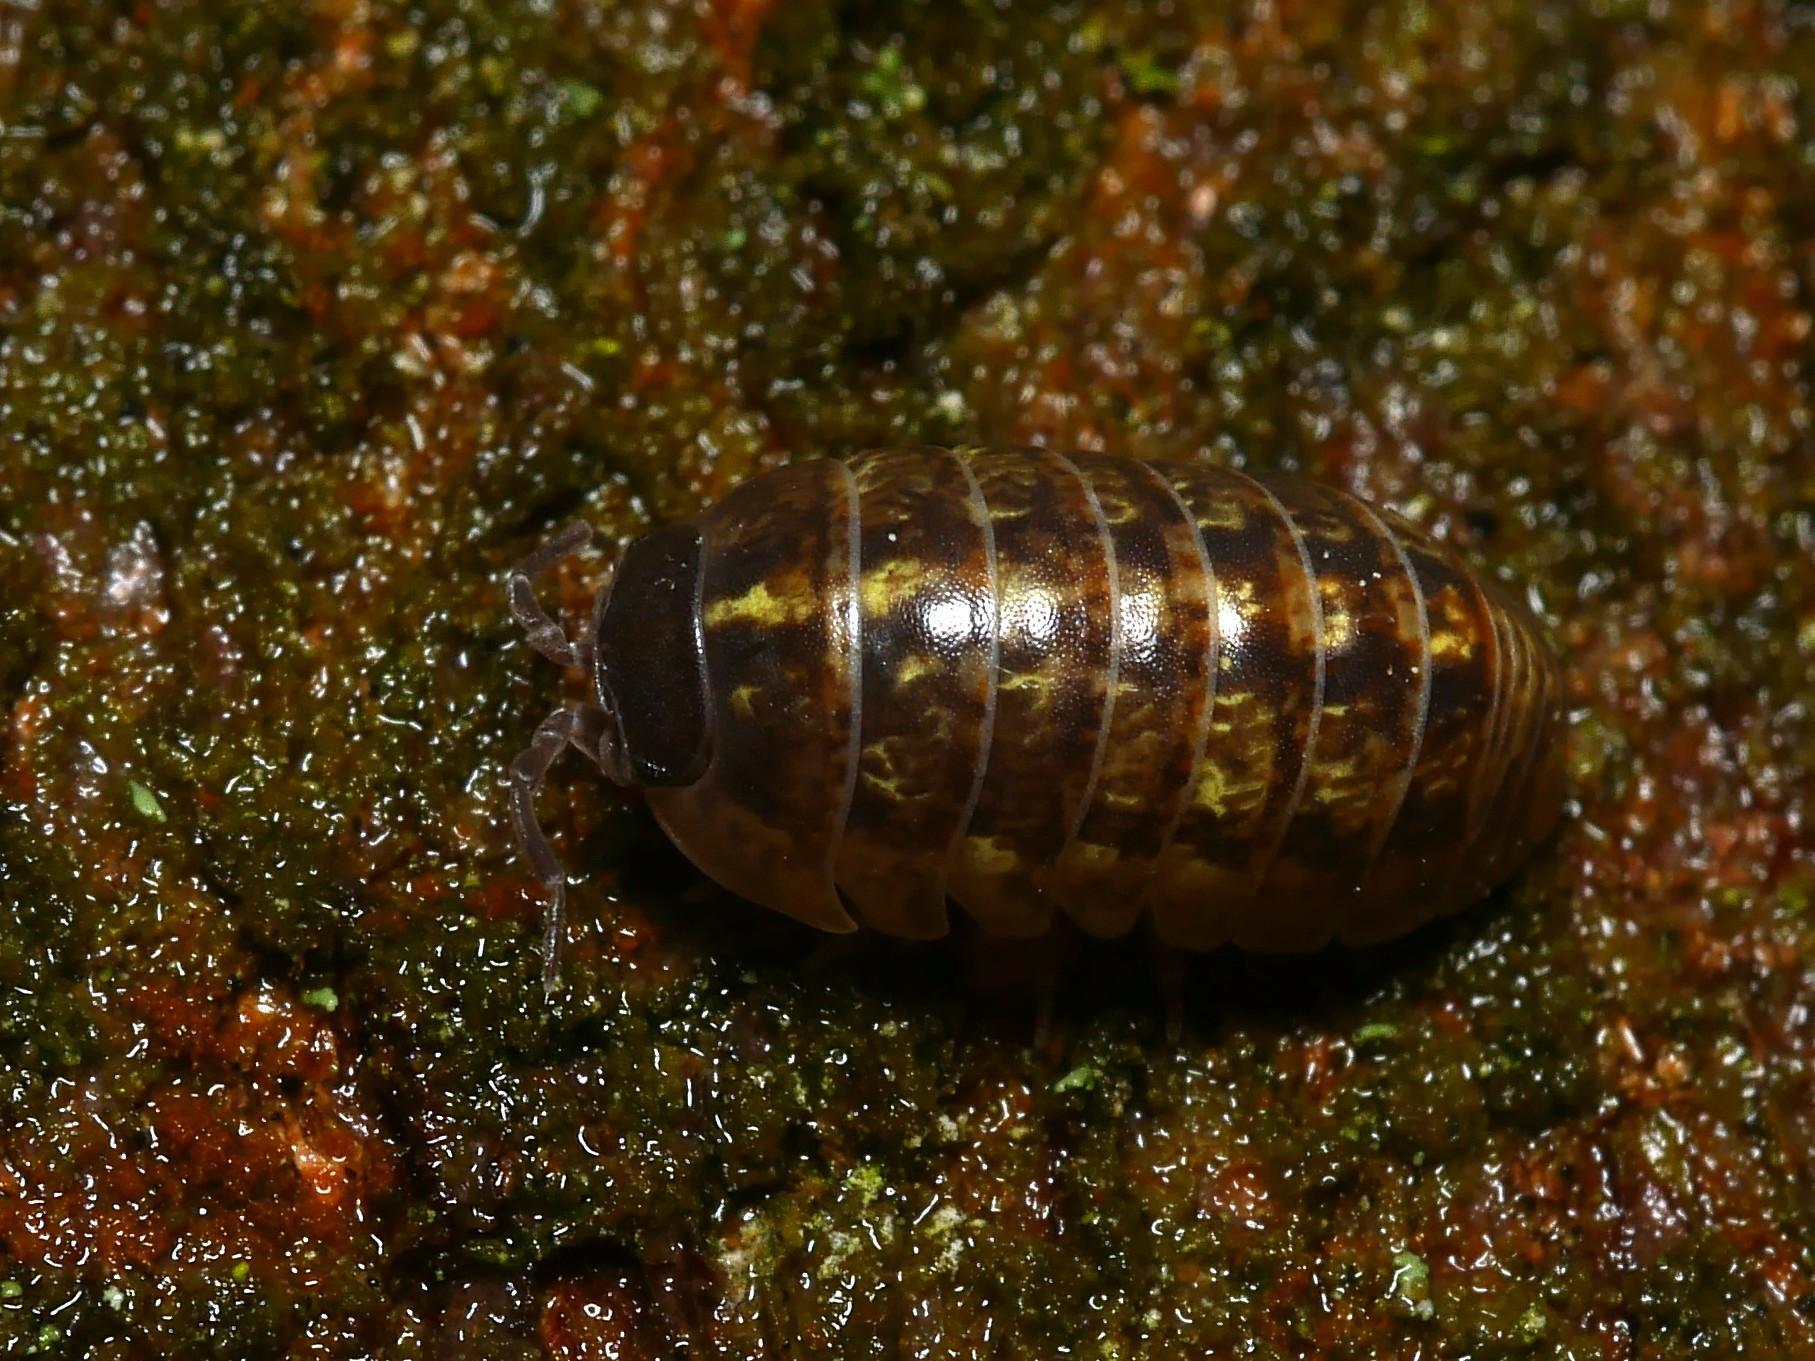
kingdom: Animalia
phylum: Arthropoda
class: Malacostraca
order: Isopoda
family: Armadillidiidae
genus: Armadillidium
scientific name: Armadillidium vulgare
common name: Common pill woodlouse
